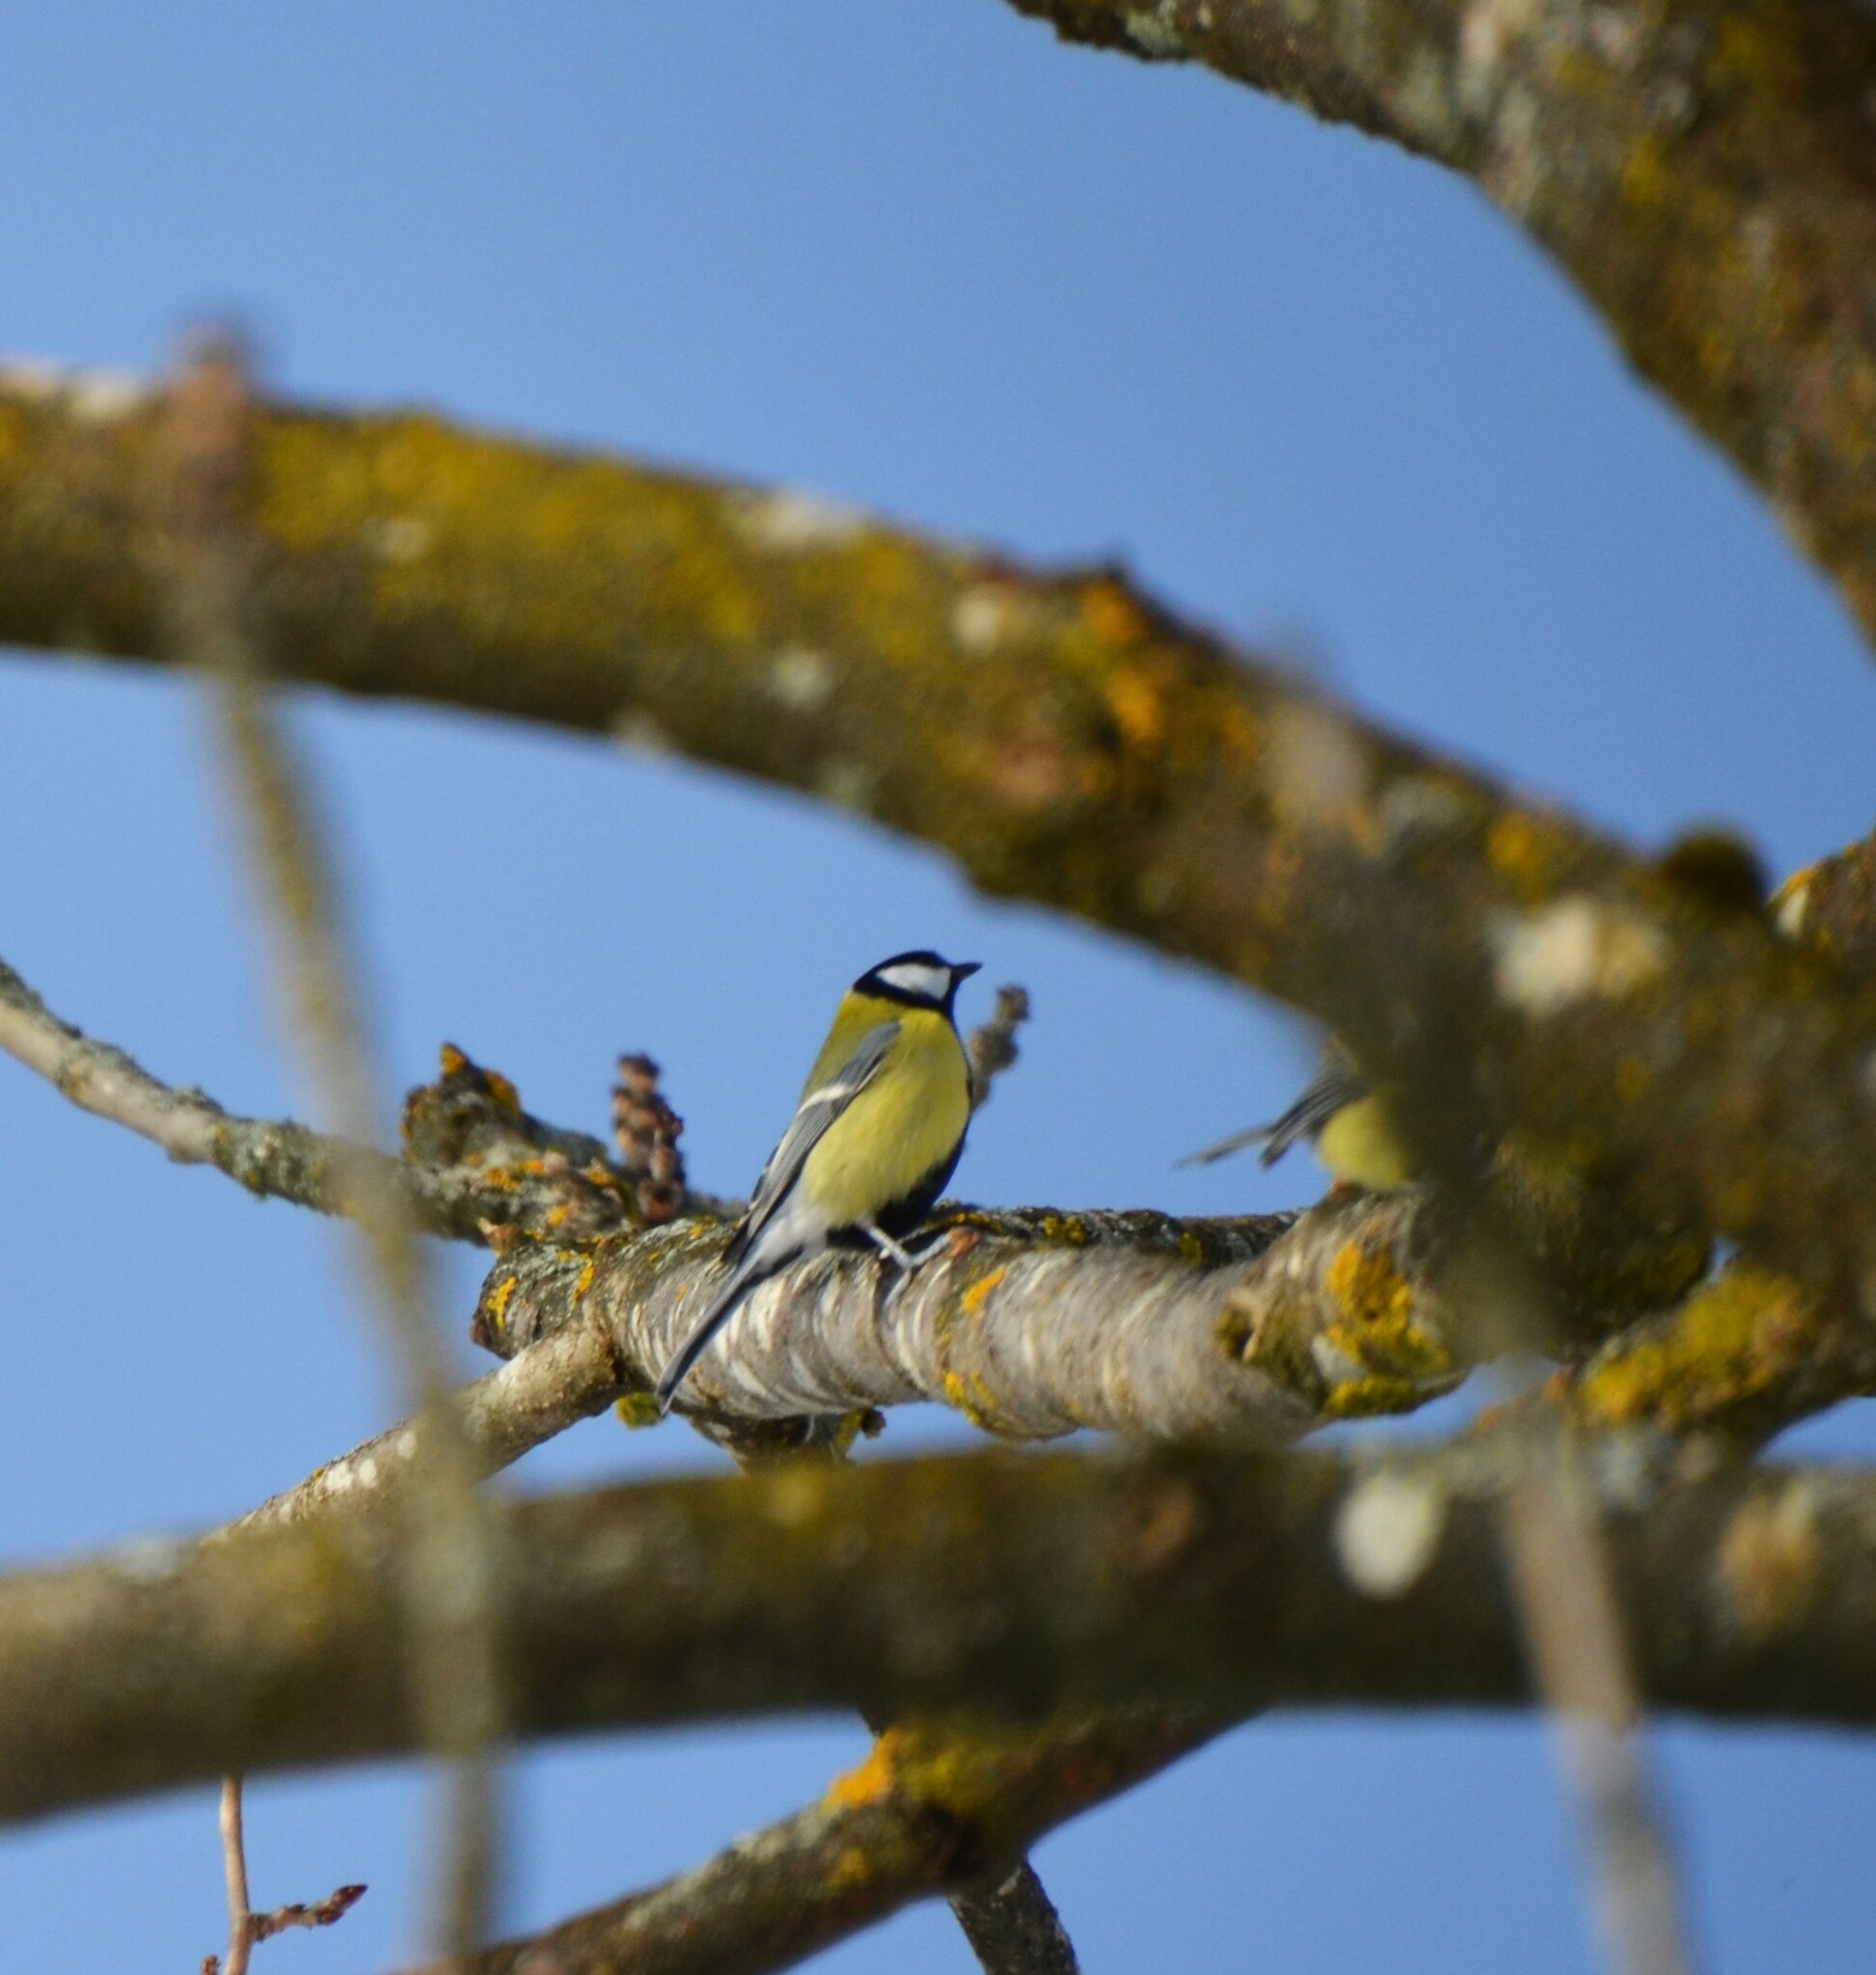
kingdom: Animalia
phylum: Chordata
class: Aves
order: Passeriformes
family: Paridae
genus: Parus
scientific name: Parus major
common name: Great tit
